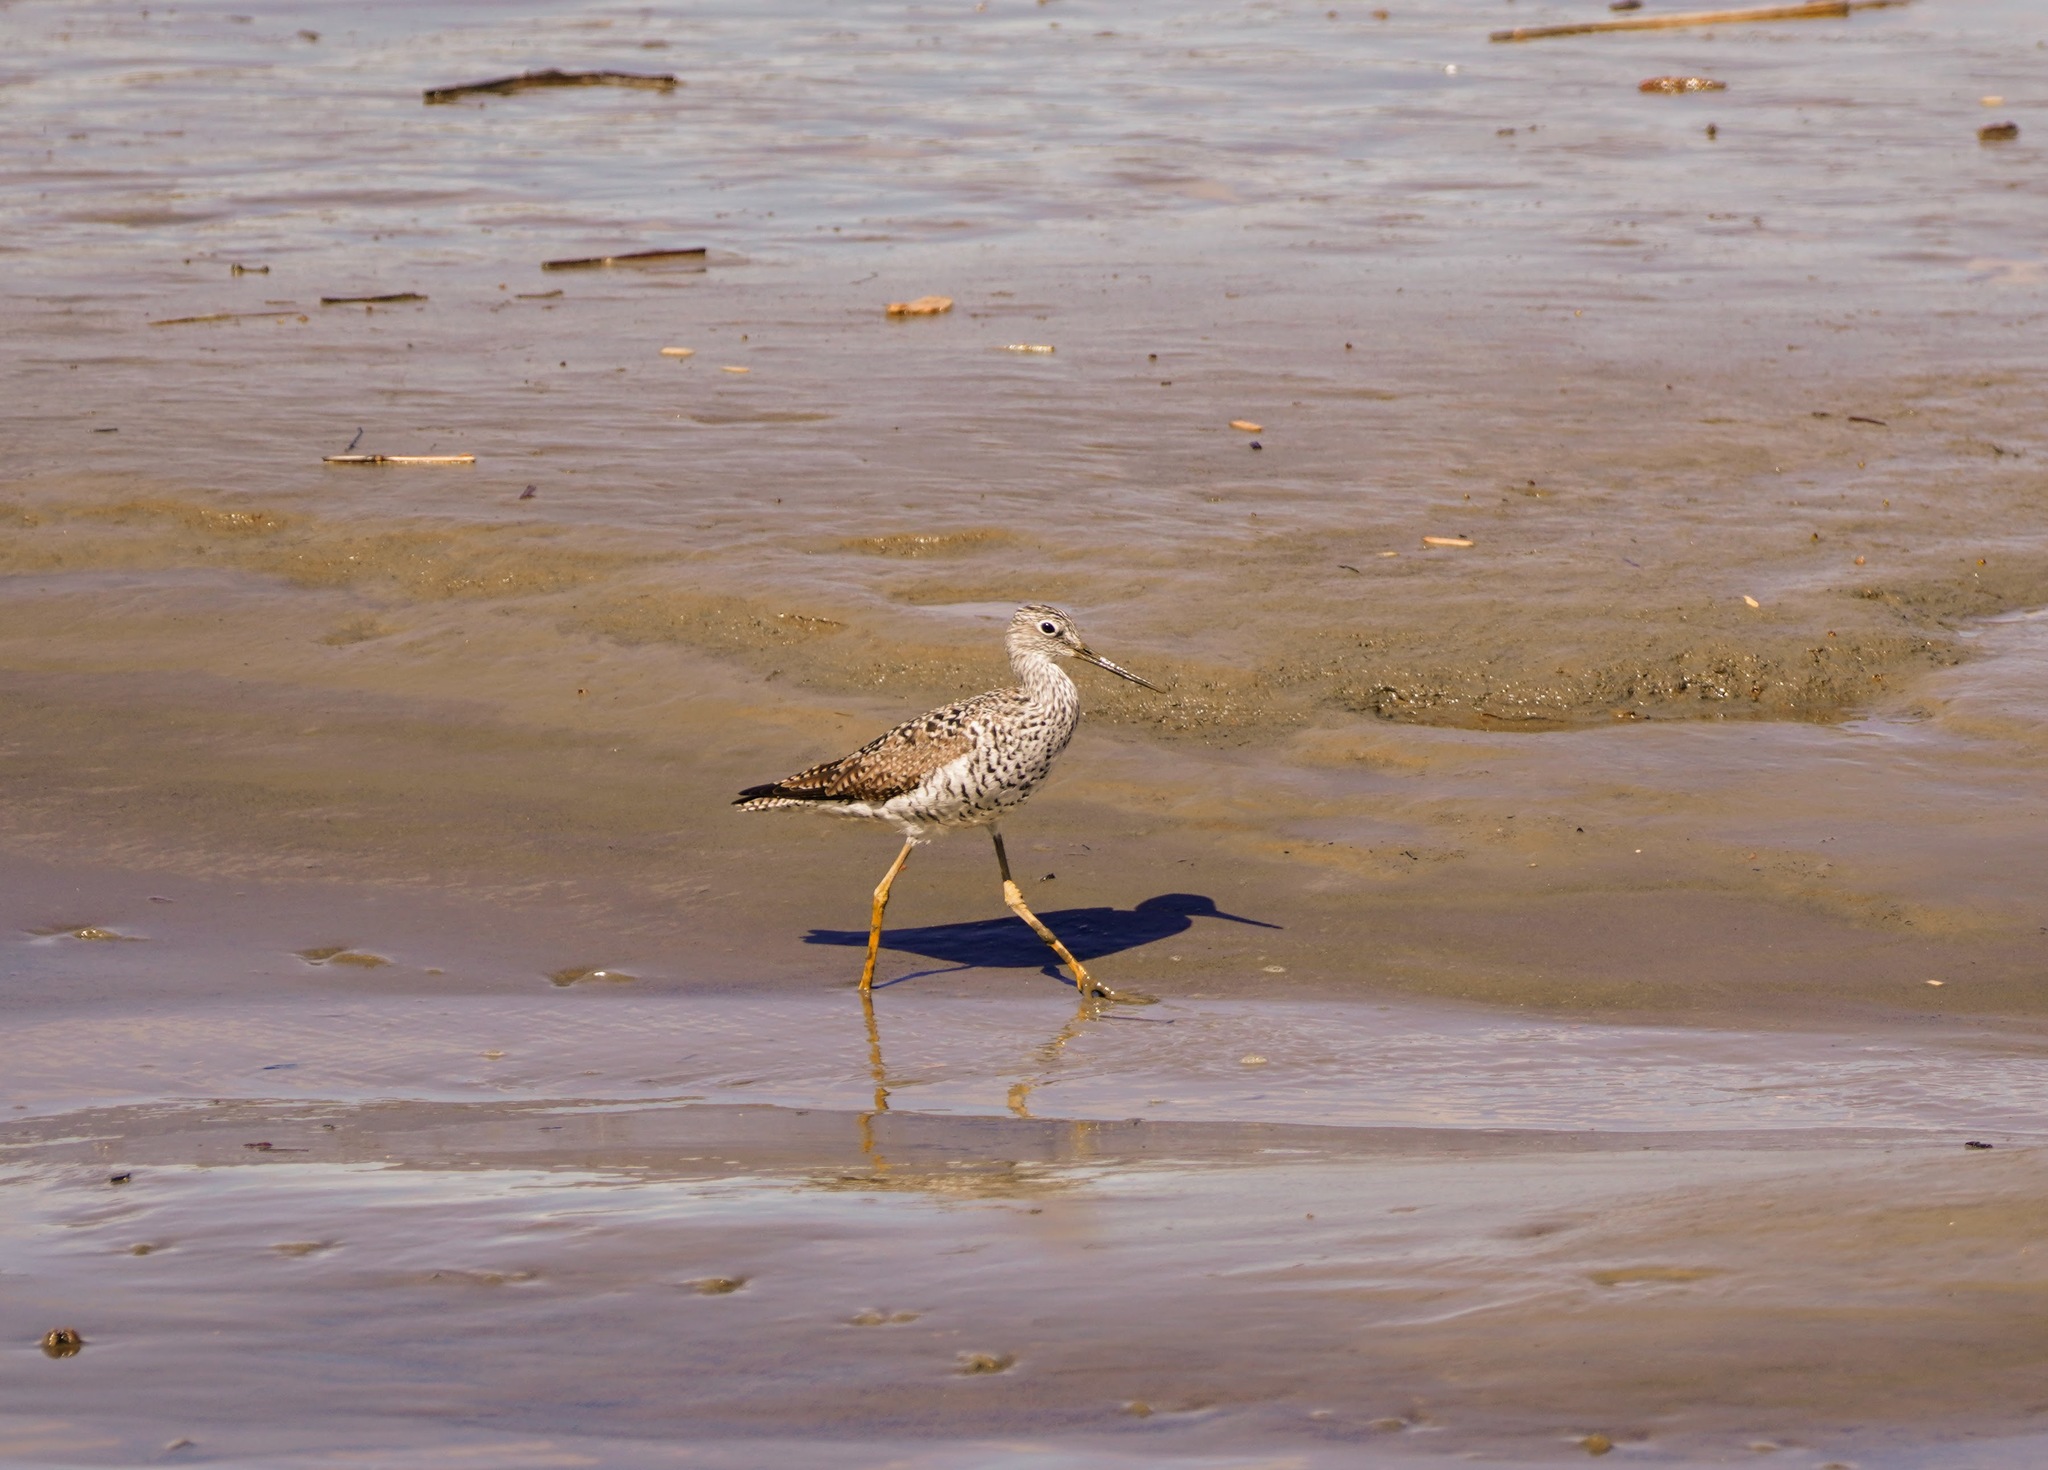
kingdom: Animalia
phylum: Chordata
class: Aves
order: Charadriiformes
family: Scolopacidae
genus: Tringa
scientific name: Tringa melanoleuca
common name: Greater yellowlegs
